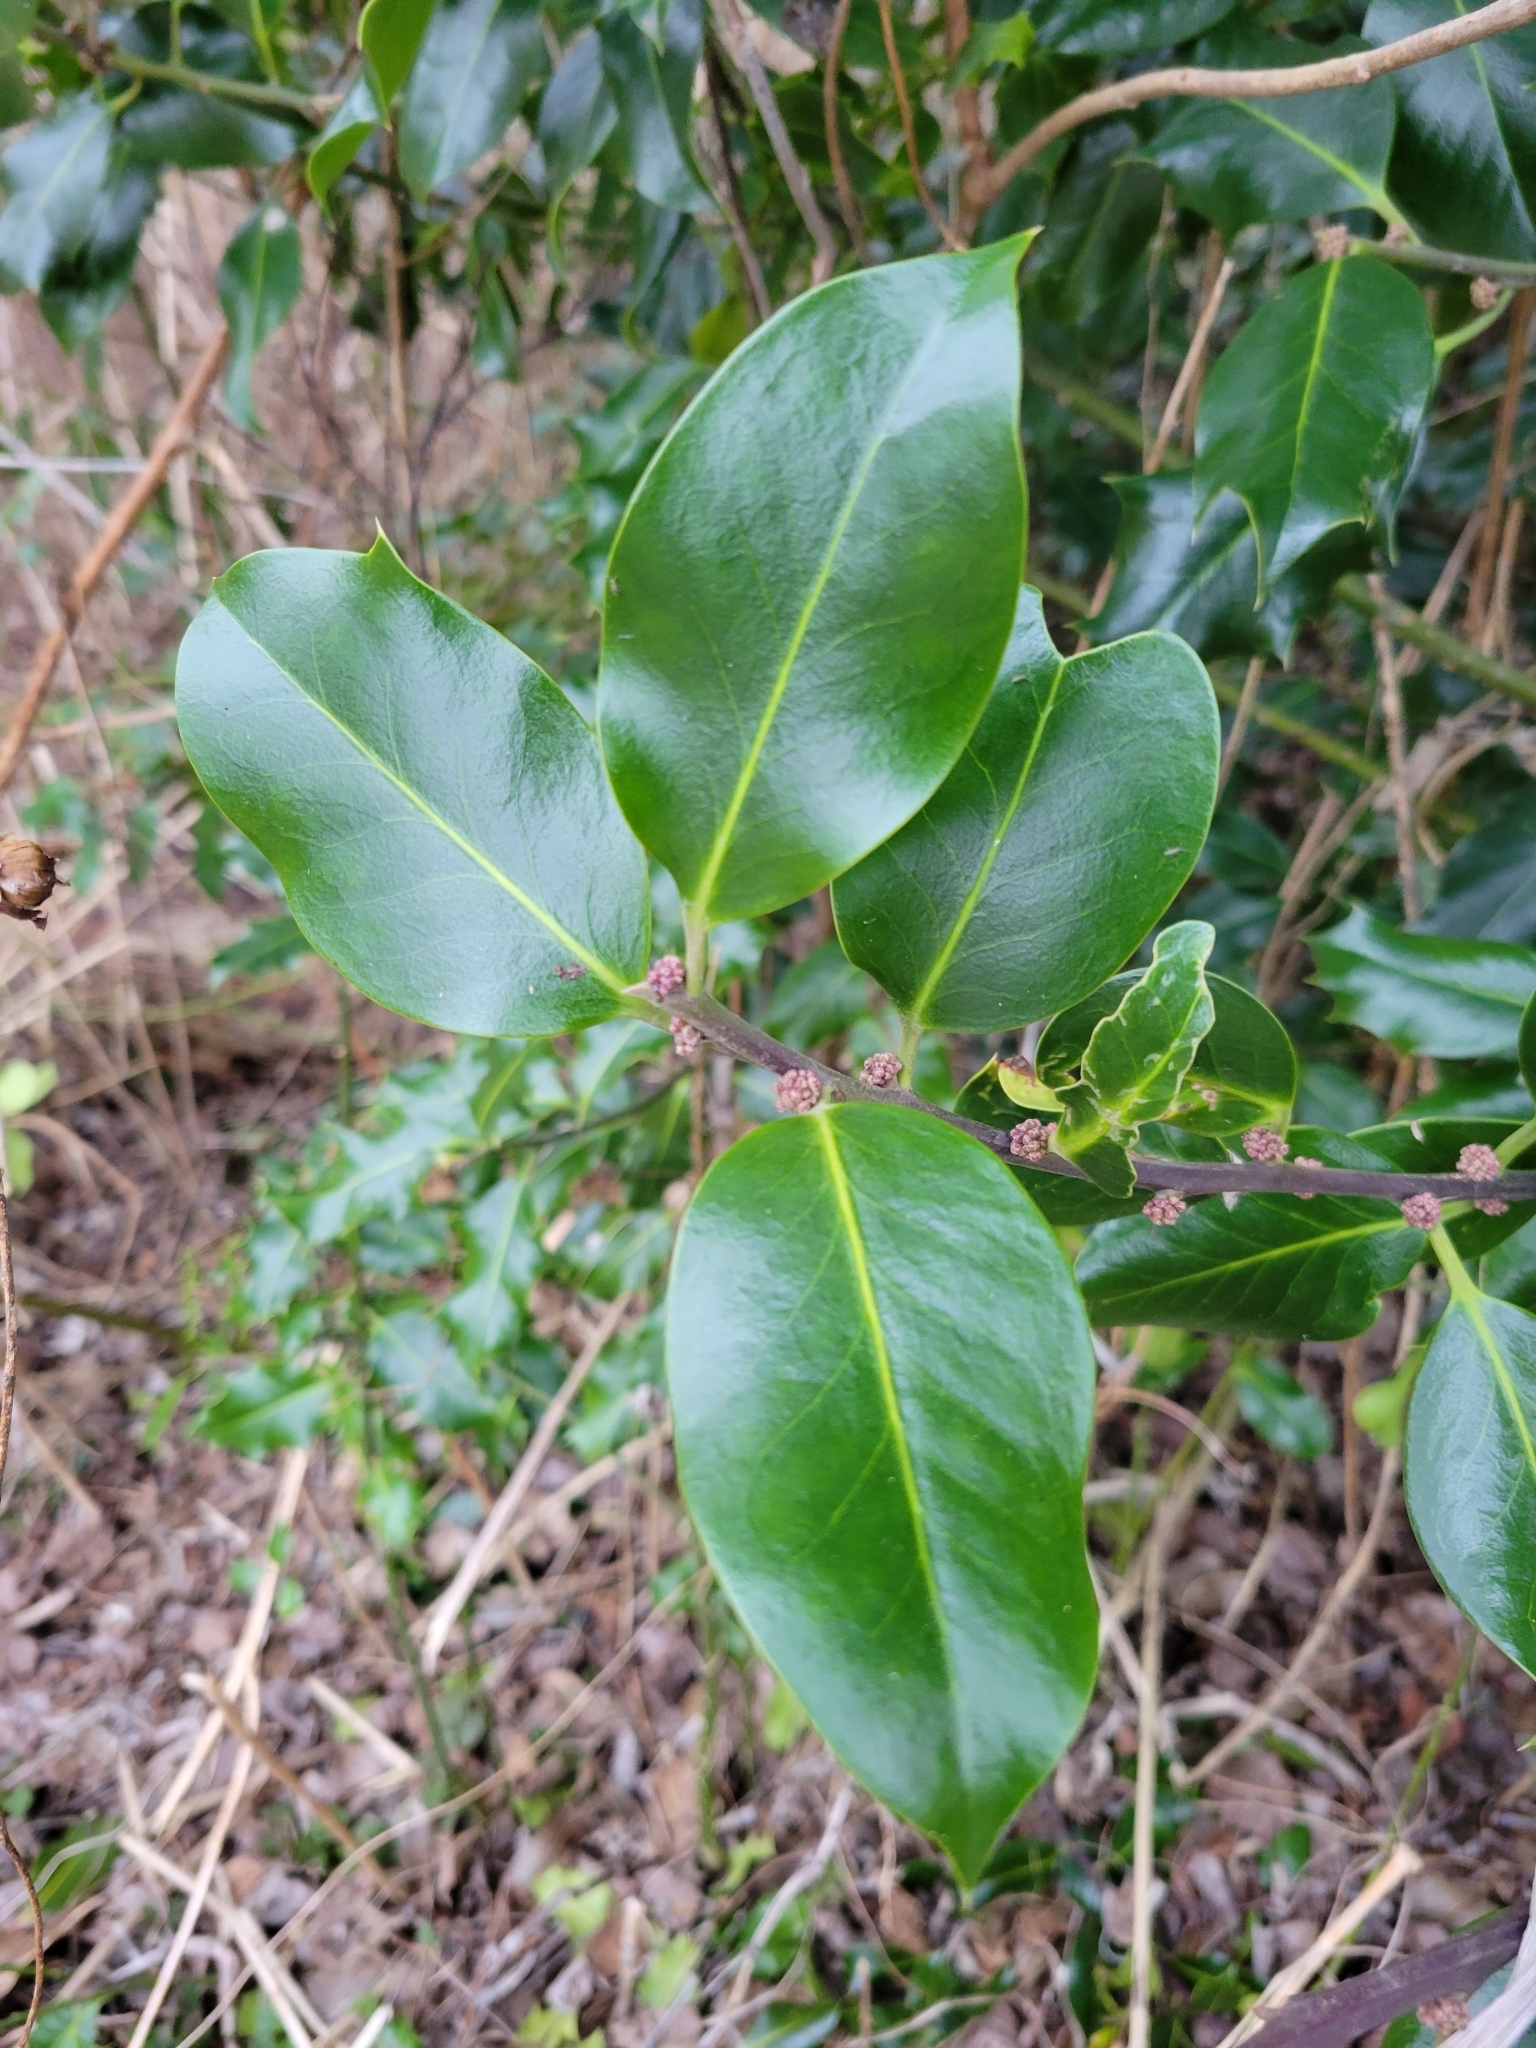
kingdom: Plantae
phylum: Tracheophyta
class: Magnoliopsida
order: Aquifoliales
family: Aquifoliaceae
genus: Ilex
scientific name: Ilex aquifolium
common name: English holly
